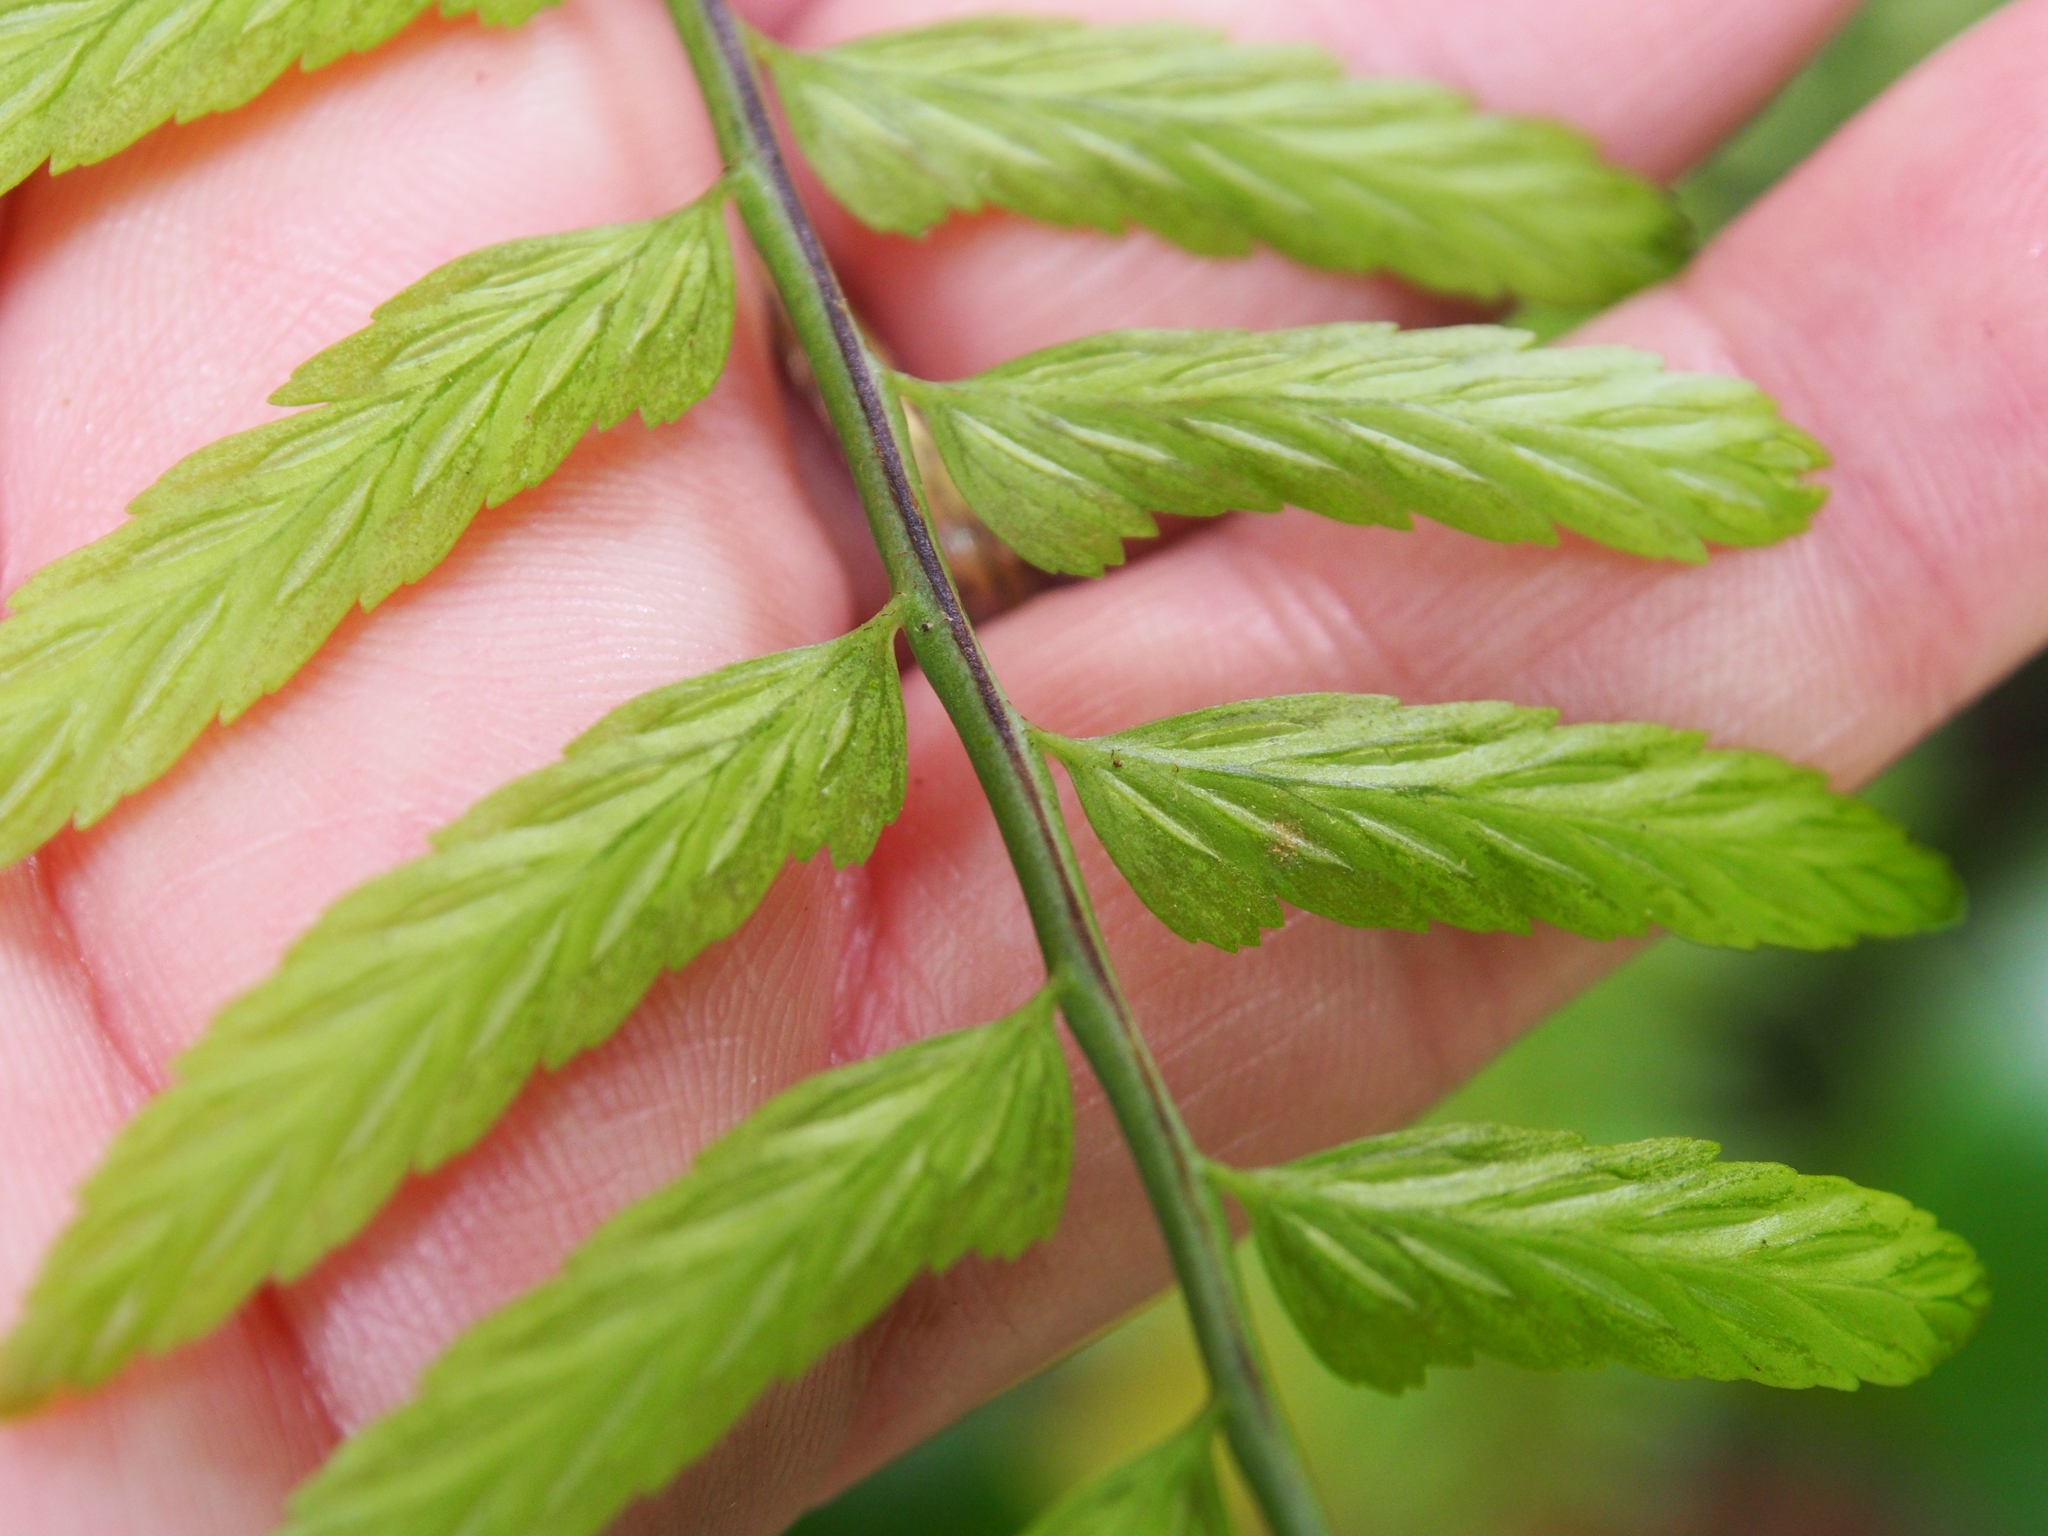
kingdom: Plantae
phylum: Tracheophyta
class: Polypodiopsida
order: Polypodiales
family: Aspleniaceae
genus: Asplenium
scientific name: Asplenium auritum
